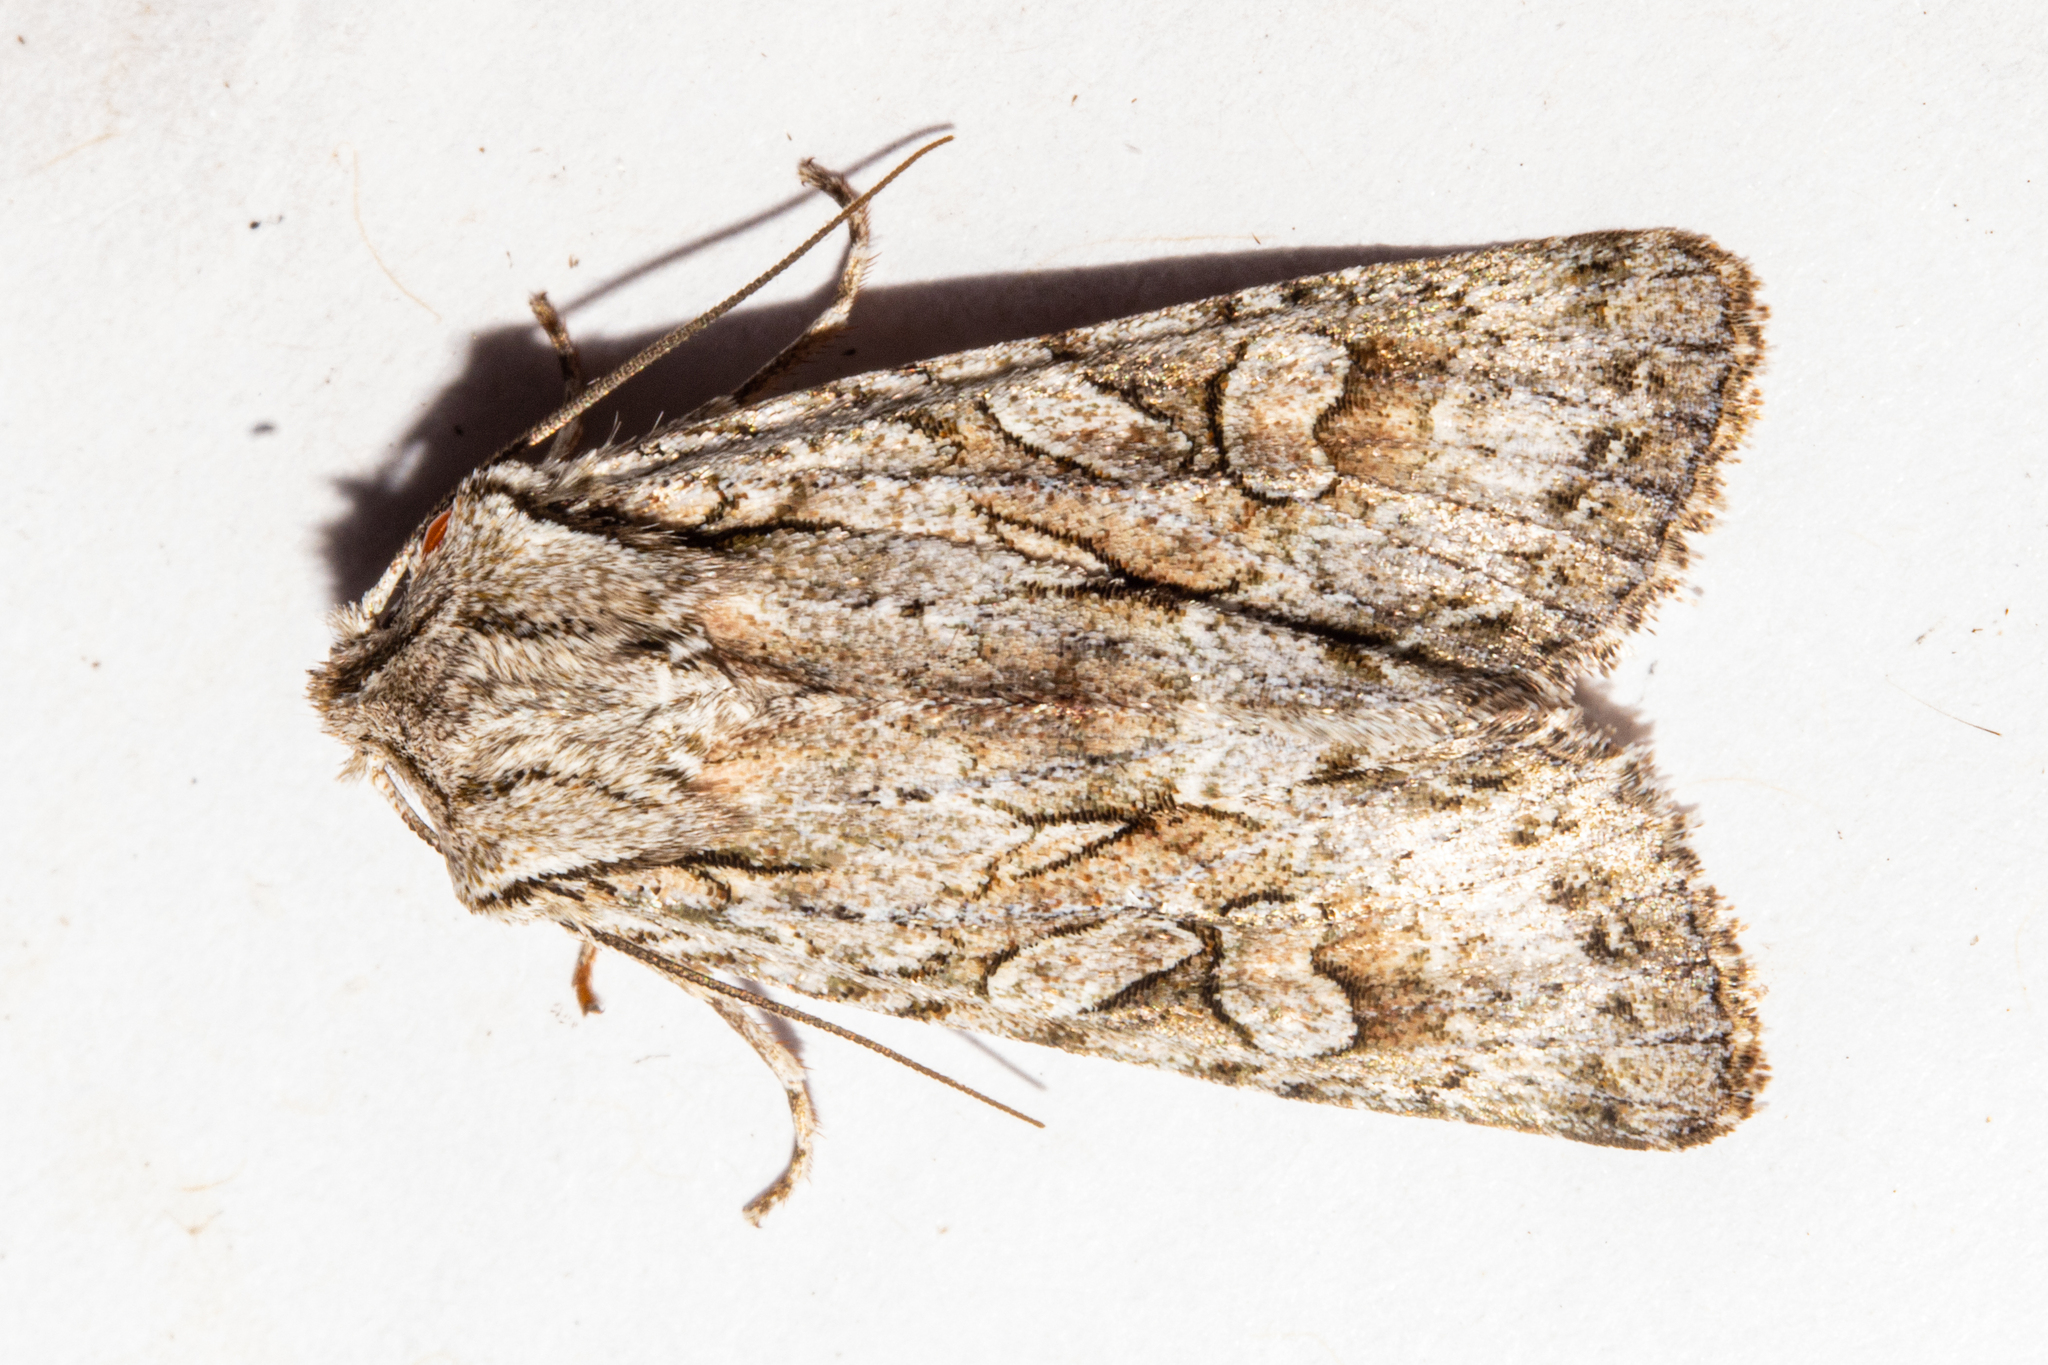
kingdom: Animalia
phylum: Arthropoda
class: Insecta
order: Lepidoptera
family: Noctuidae
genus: Ichneutica
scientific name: Ichneutica mutans
